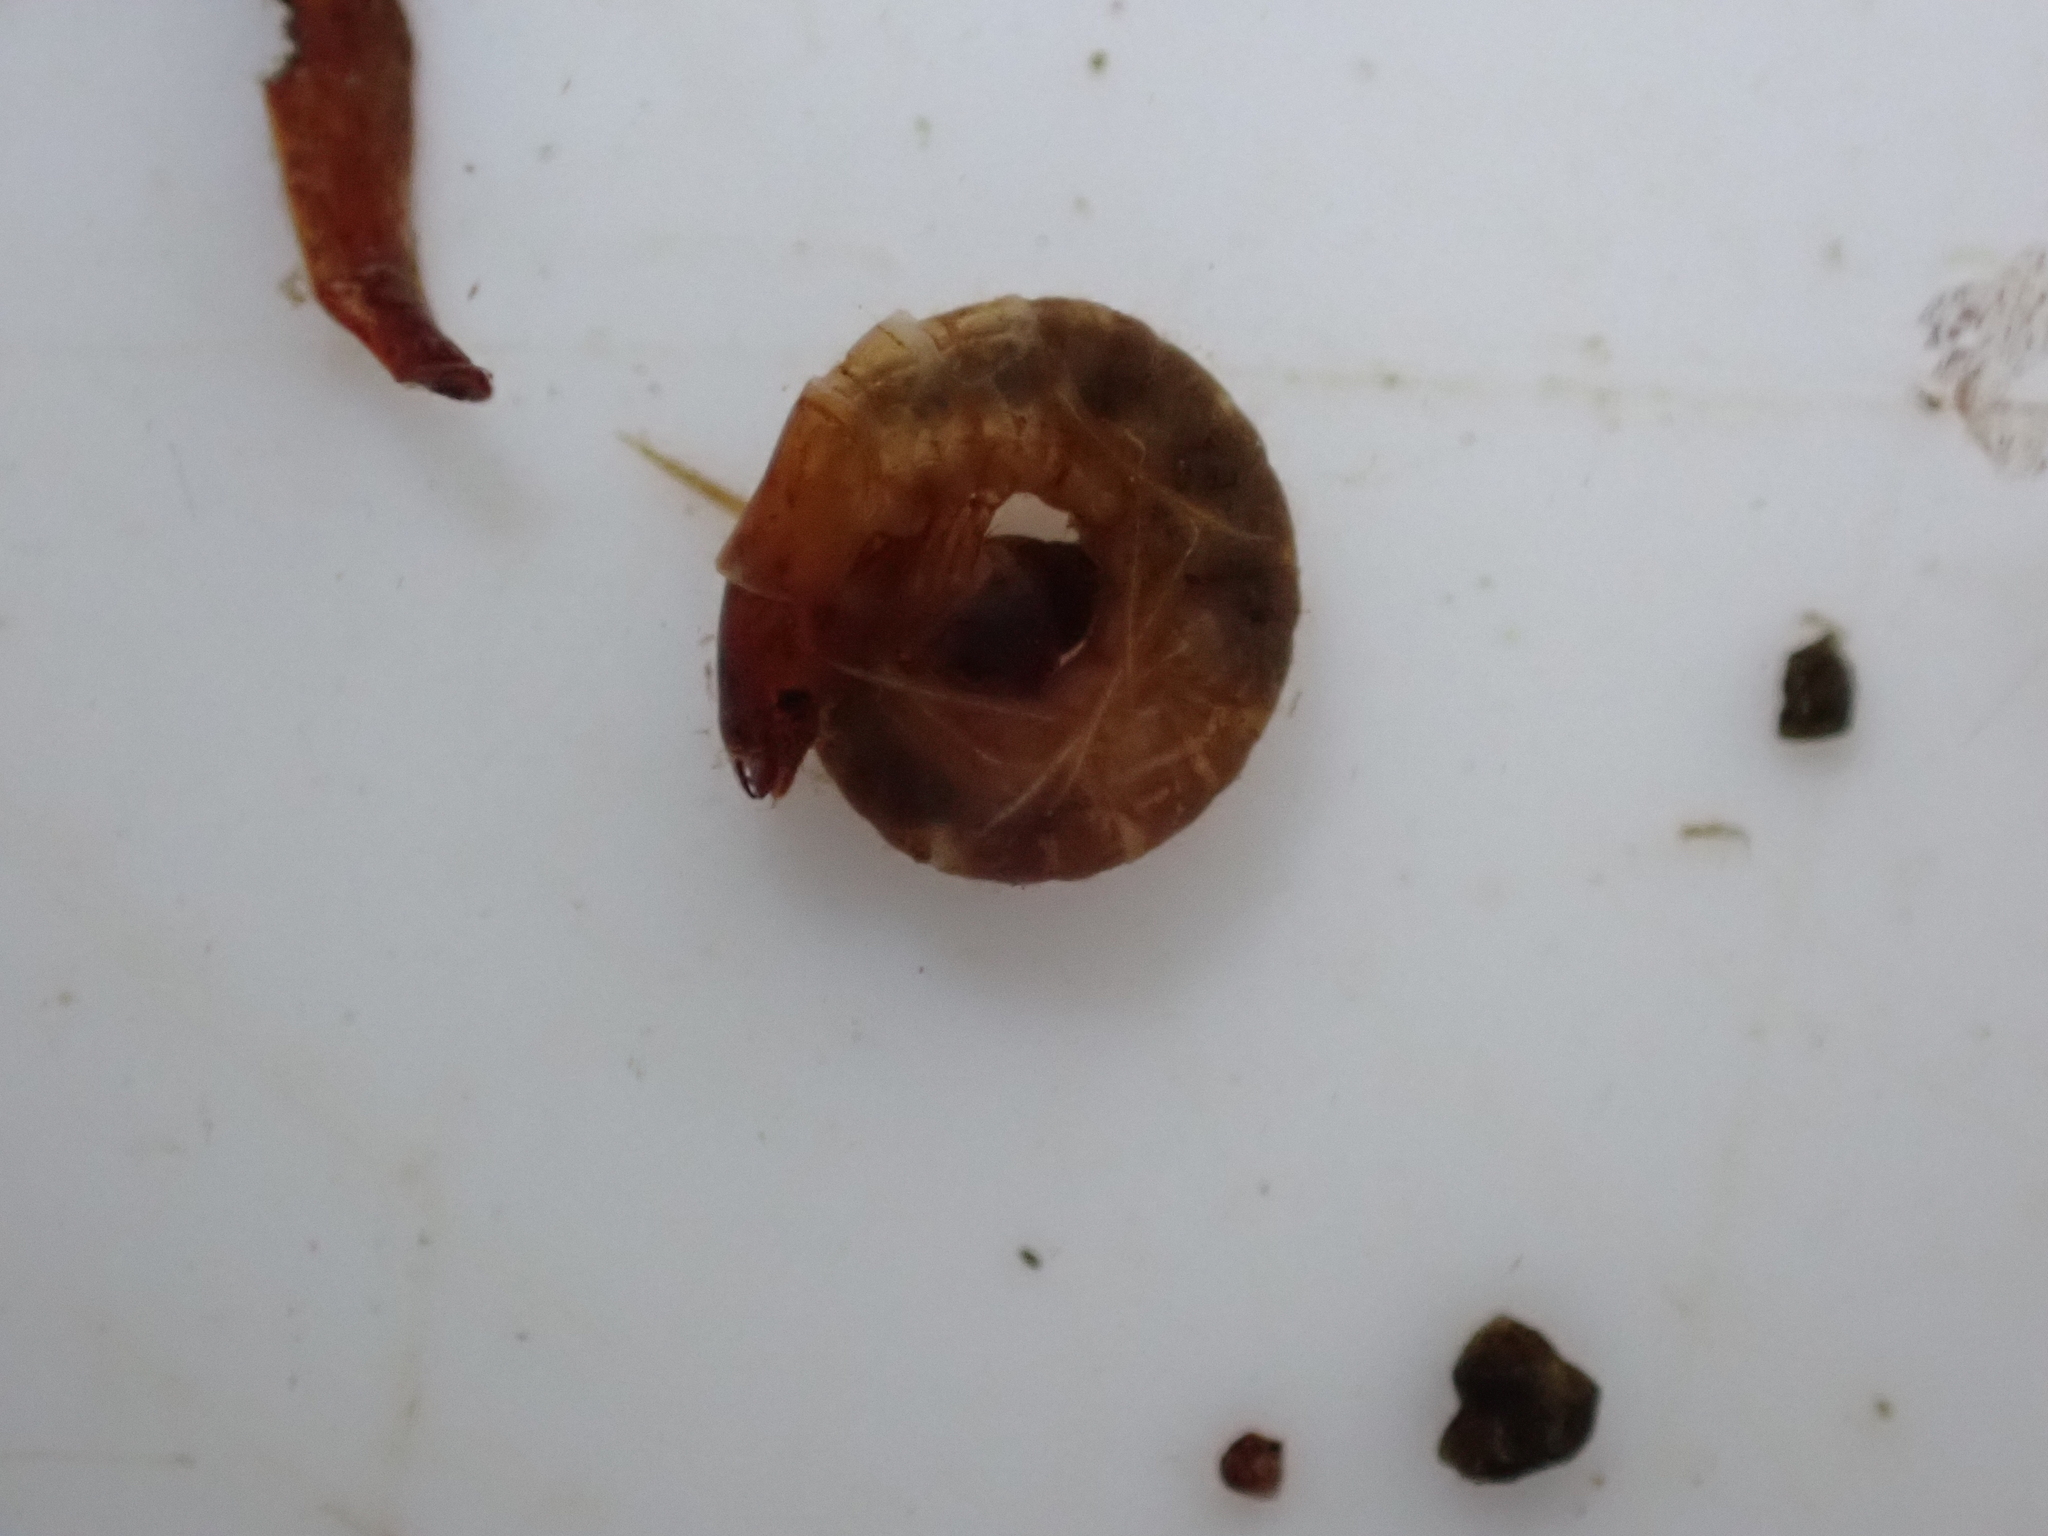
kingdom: Animalia
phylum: Arthropoda
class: Insecta
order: Megaloptera
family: Corydalidae
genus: Archichauliodes
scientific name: Archichauliodes diversus
